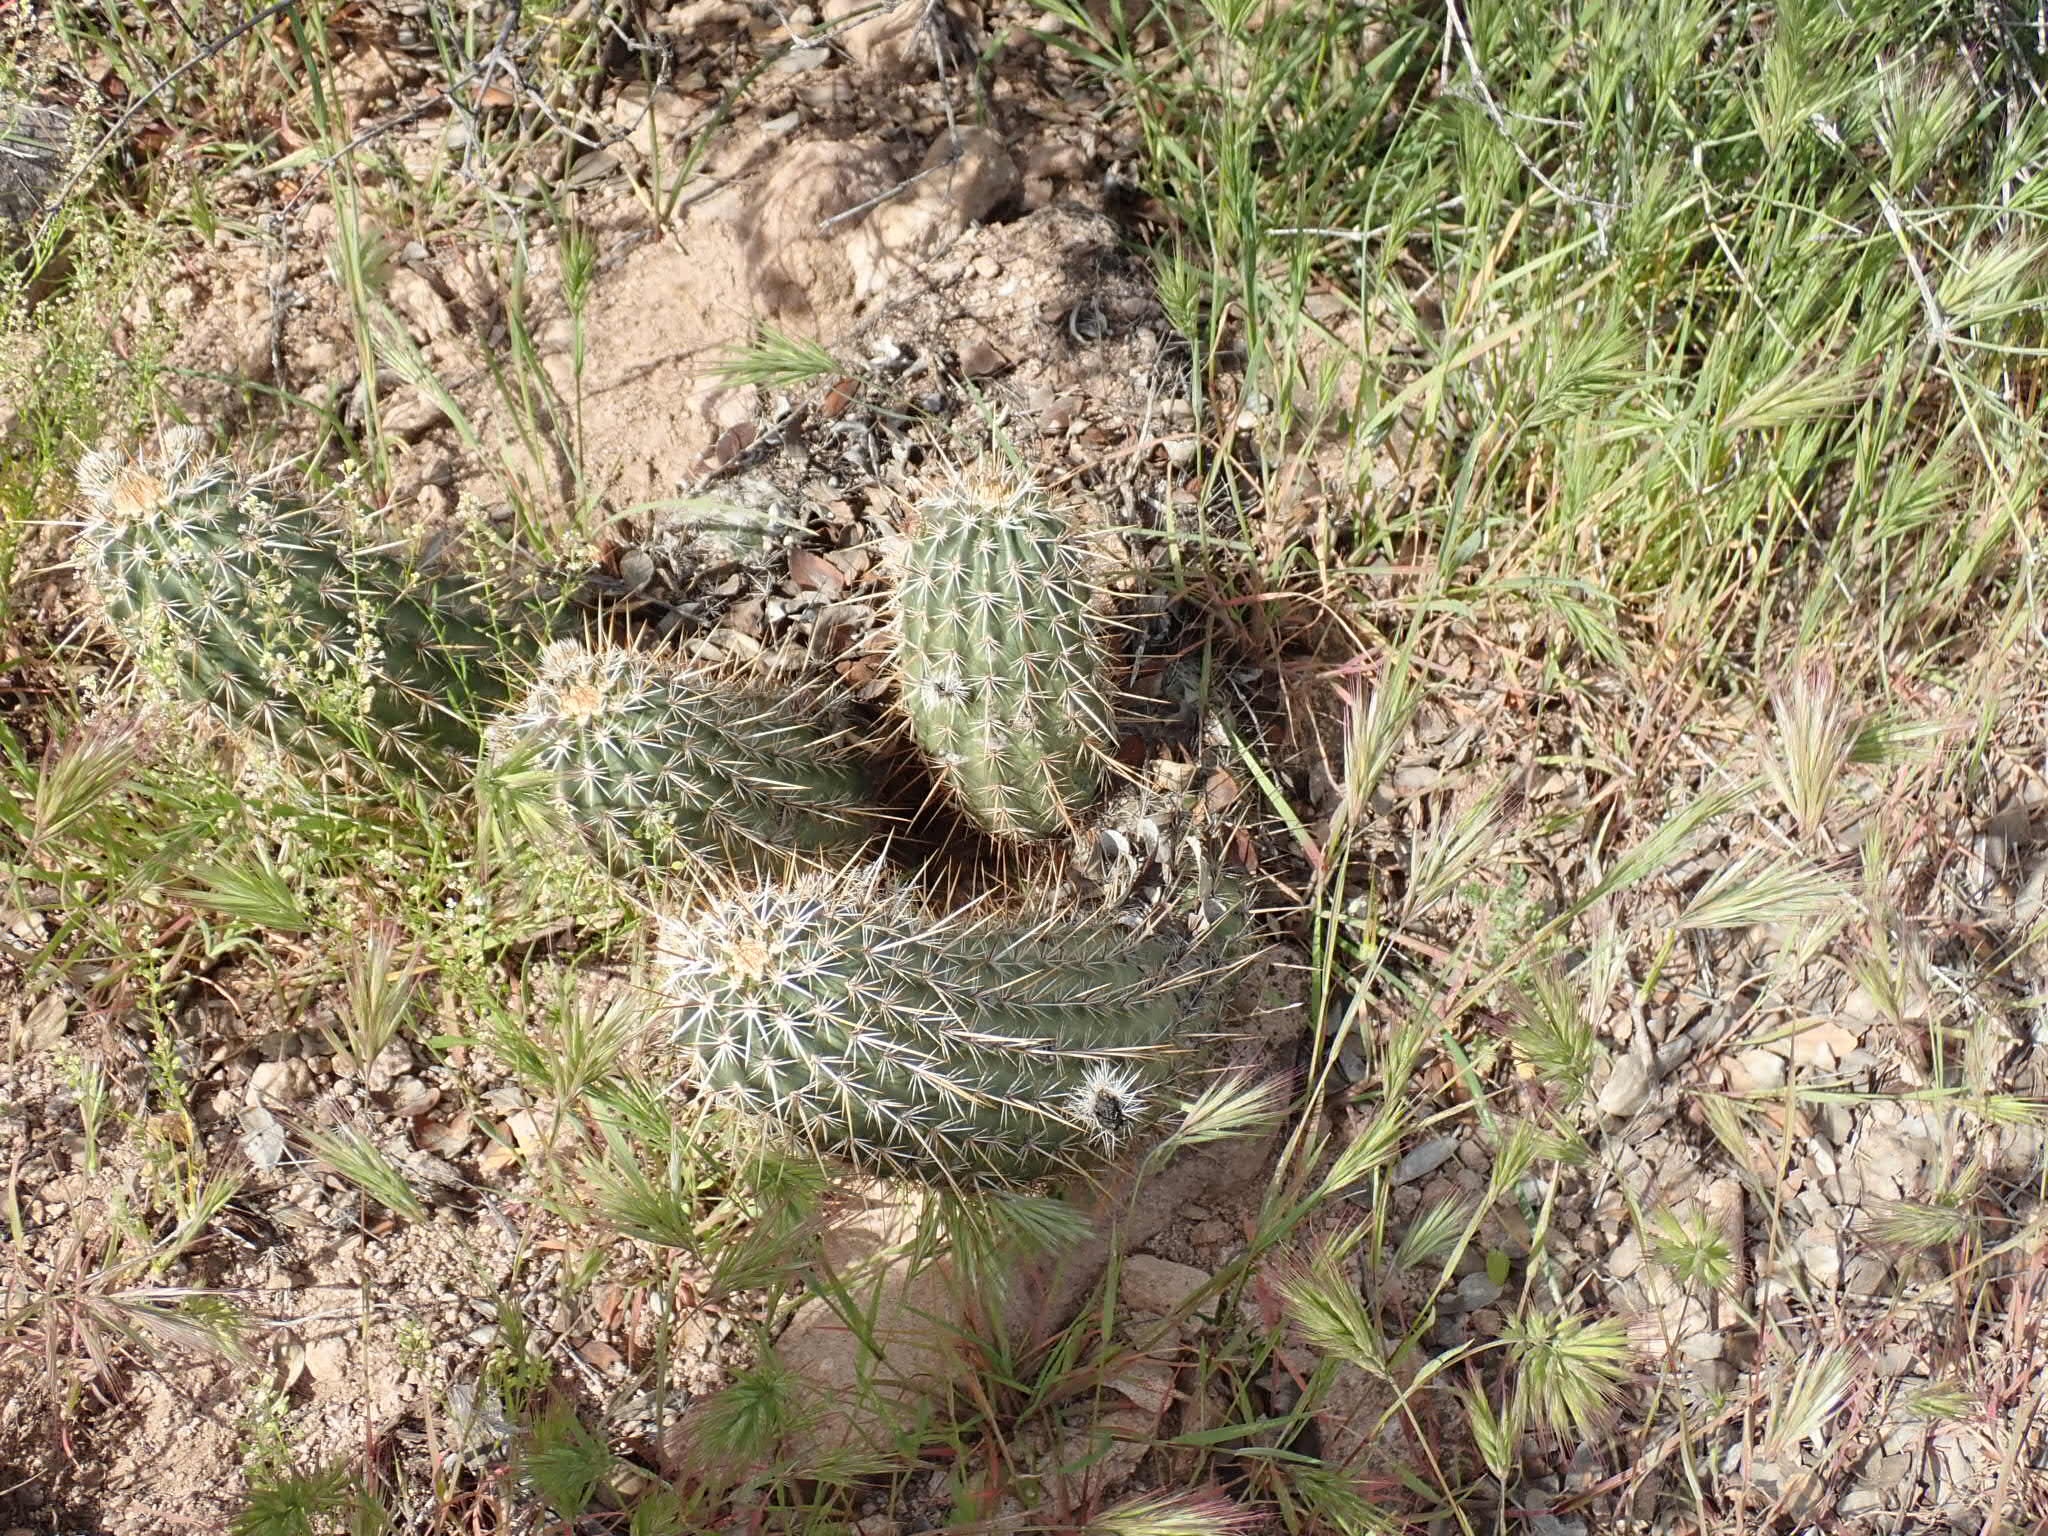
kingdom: Plantae
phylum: Tracheophyta
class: Magnoliopsida
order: Caryophyllales
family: Cactaceae
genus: Echinocereus
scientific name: Echinocereus fasciculatus
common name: Bundle hedgehog
